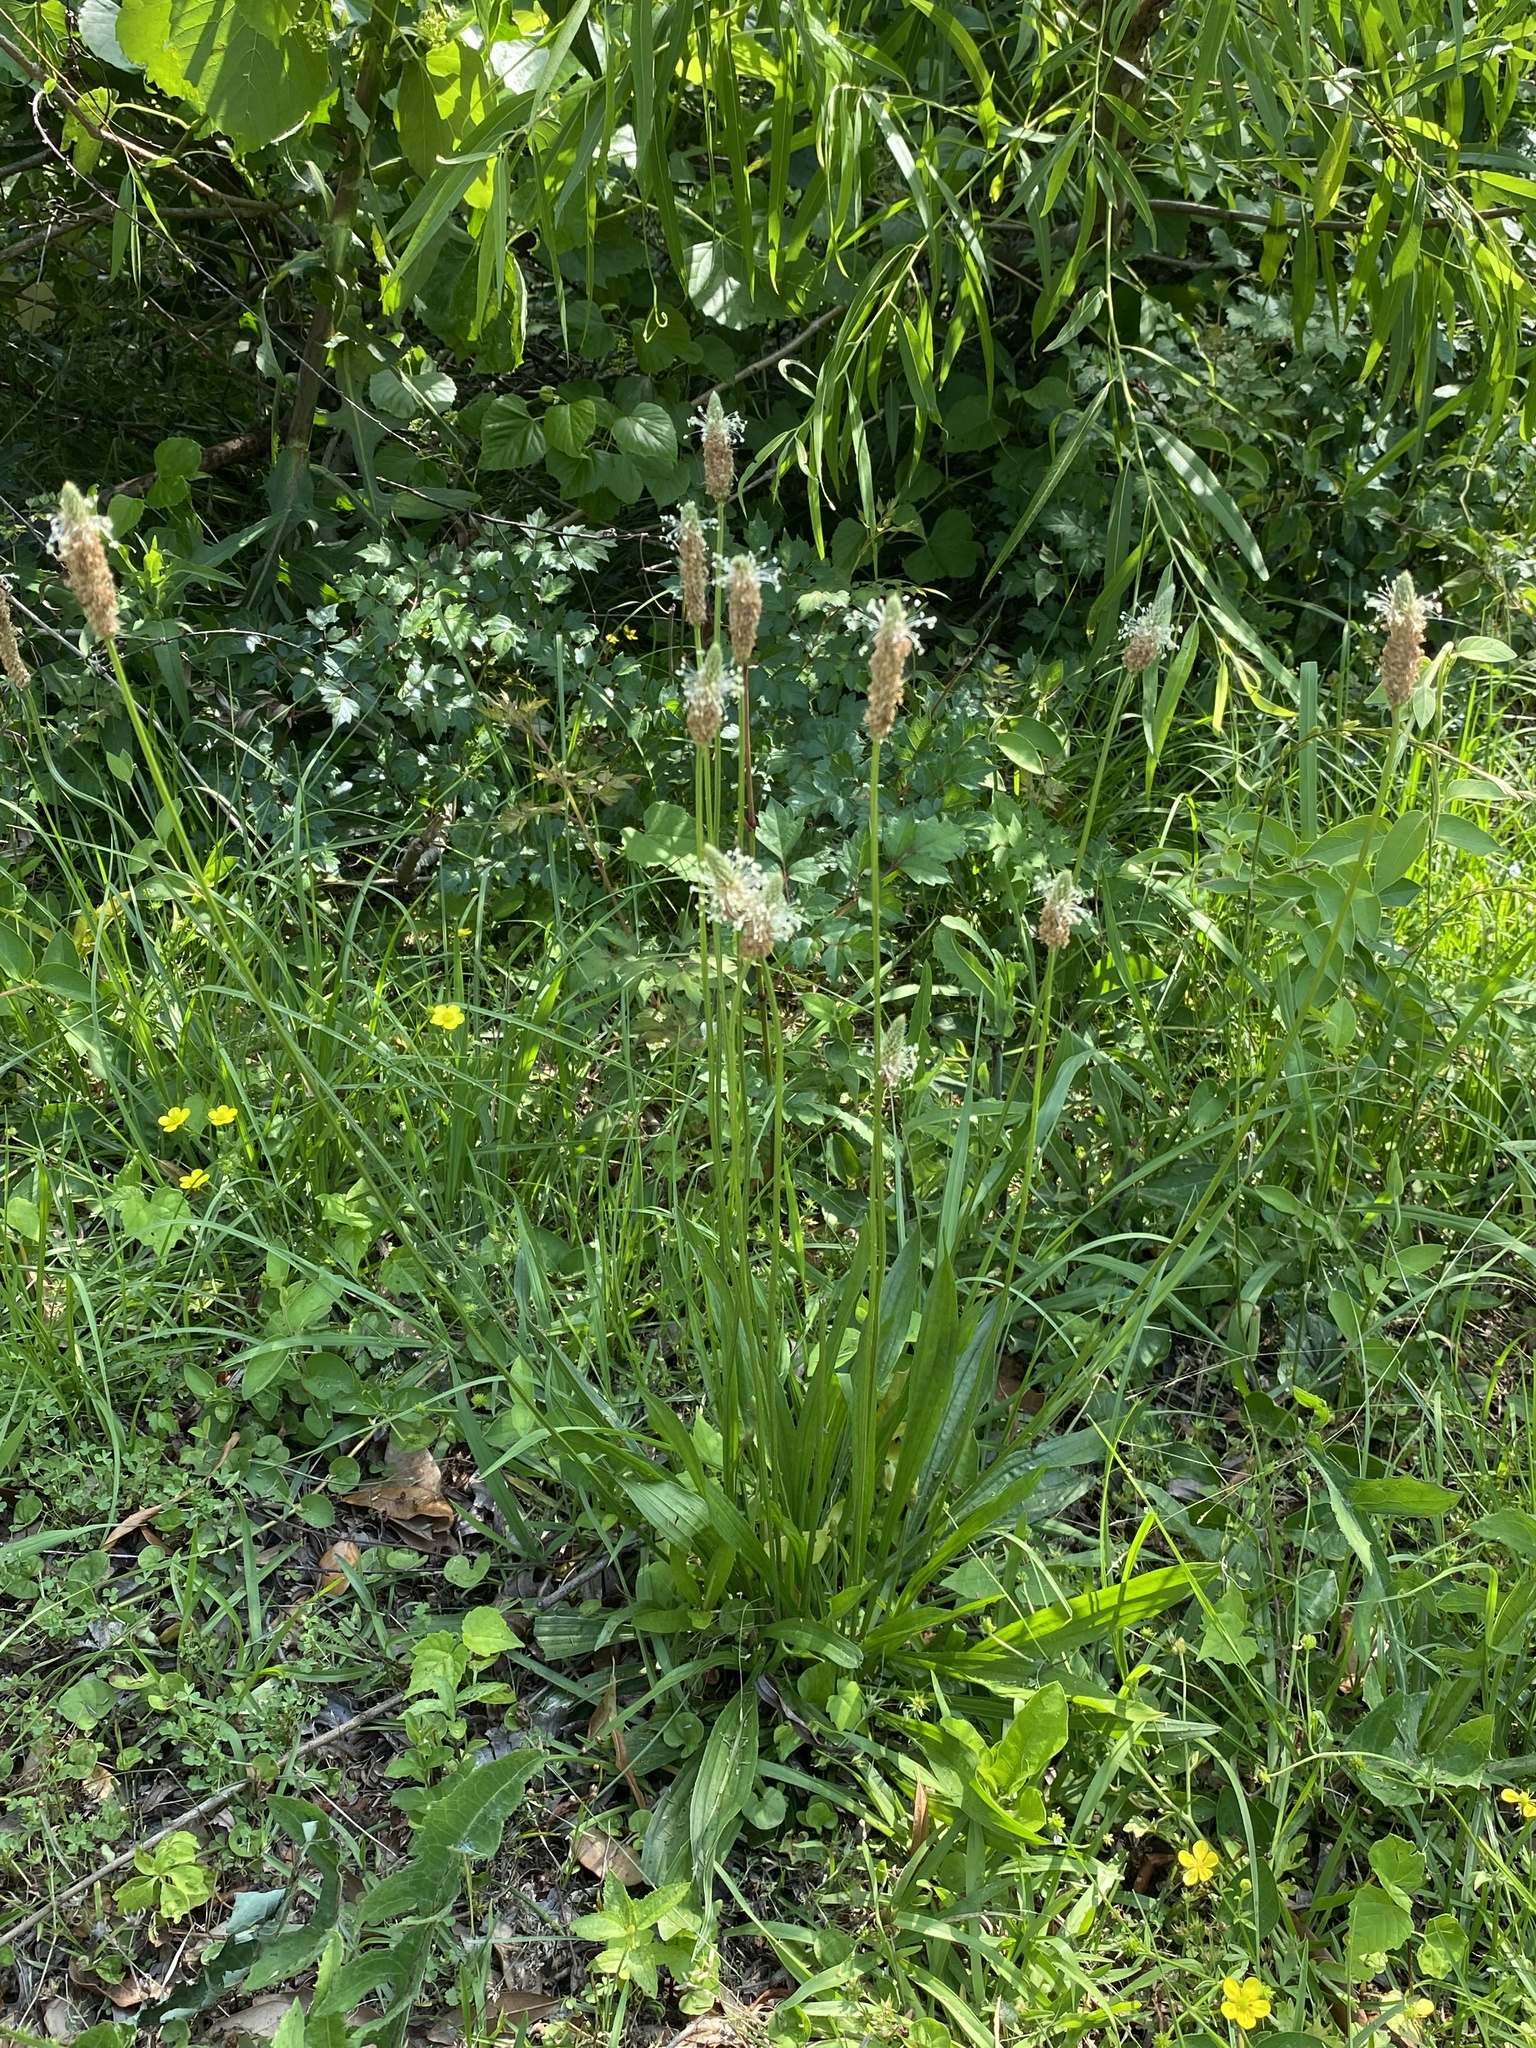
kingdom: Plantae
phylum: Tracheophyta
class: Magnoliopsida
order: Lamiales
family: Plantaginaceae
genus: Plantago
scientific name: Plantago lanceolata
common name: Ribwort plantain
